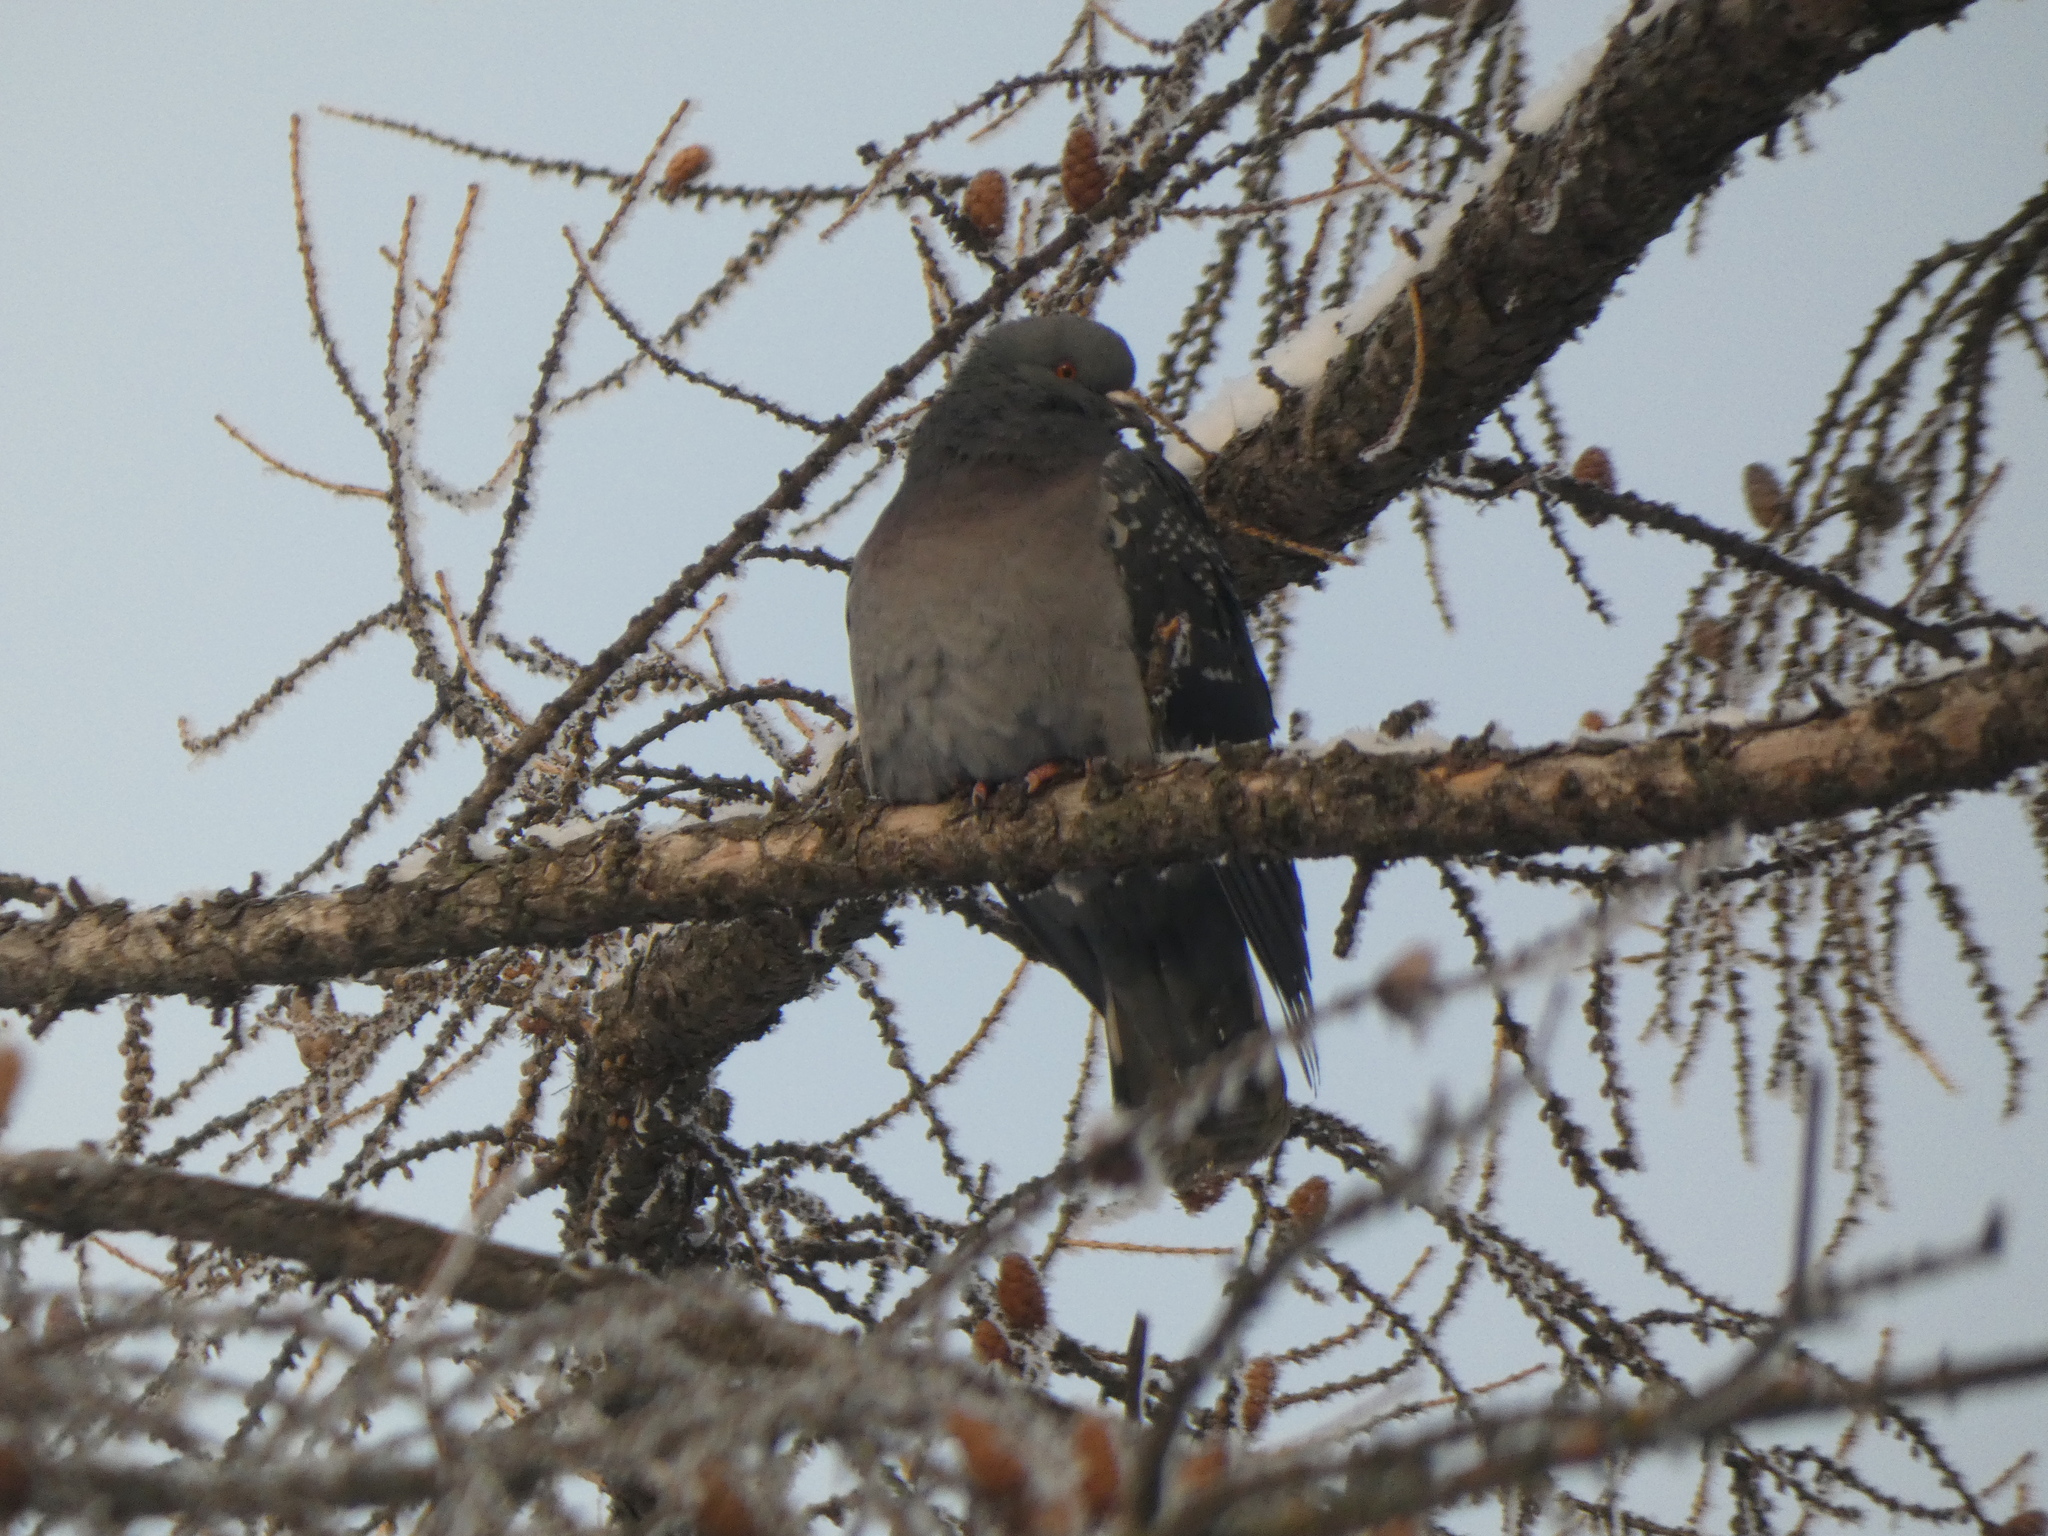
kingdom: Animalia
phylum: Chordata
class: Aves
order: Columbiformes
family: Columbidae
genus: Columba
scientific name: Columba livia
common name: Rock pigeon
